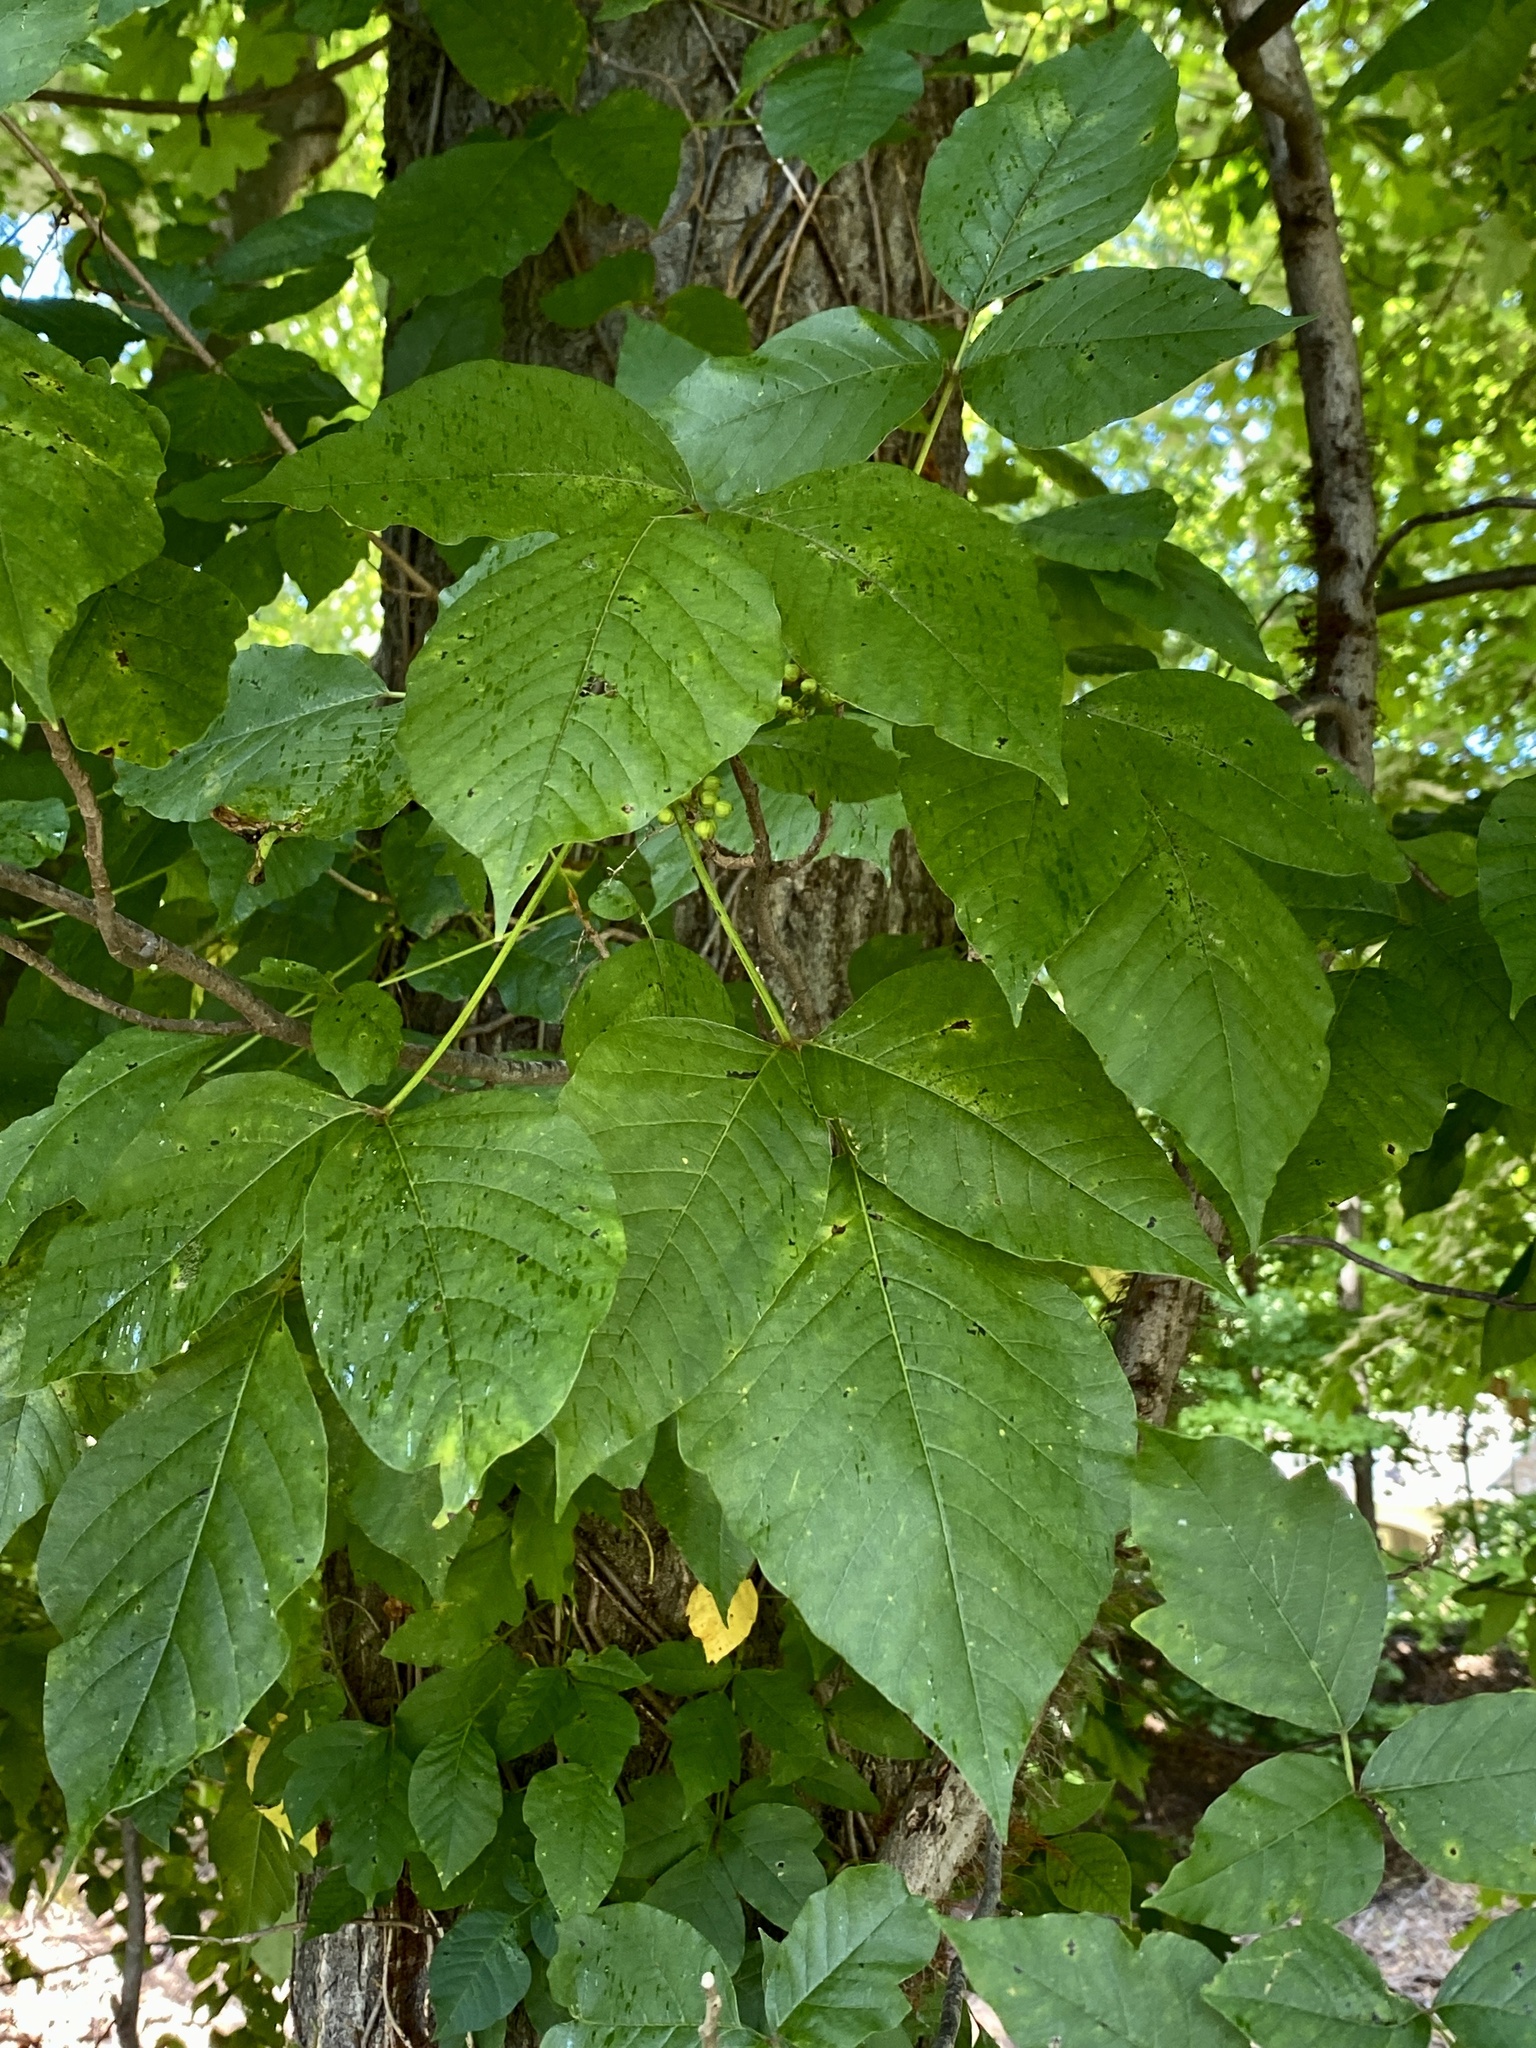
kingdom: Plantae
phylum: Tracheophyta
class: Magnoliopsida
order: Sapindales
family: Anacardiaceae
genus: Toxicodendron
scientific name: Toxicodendron radicans
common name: Poison ivy
